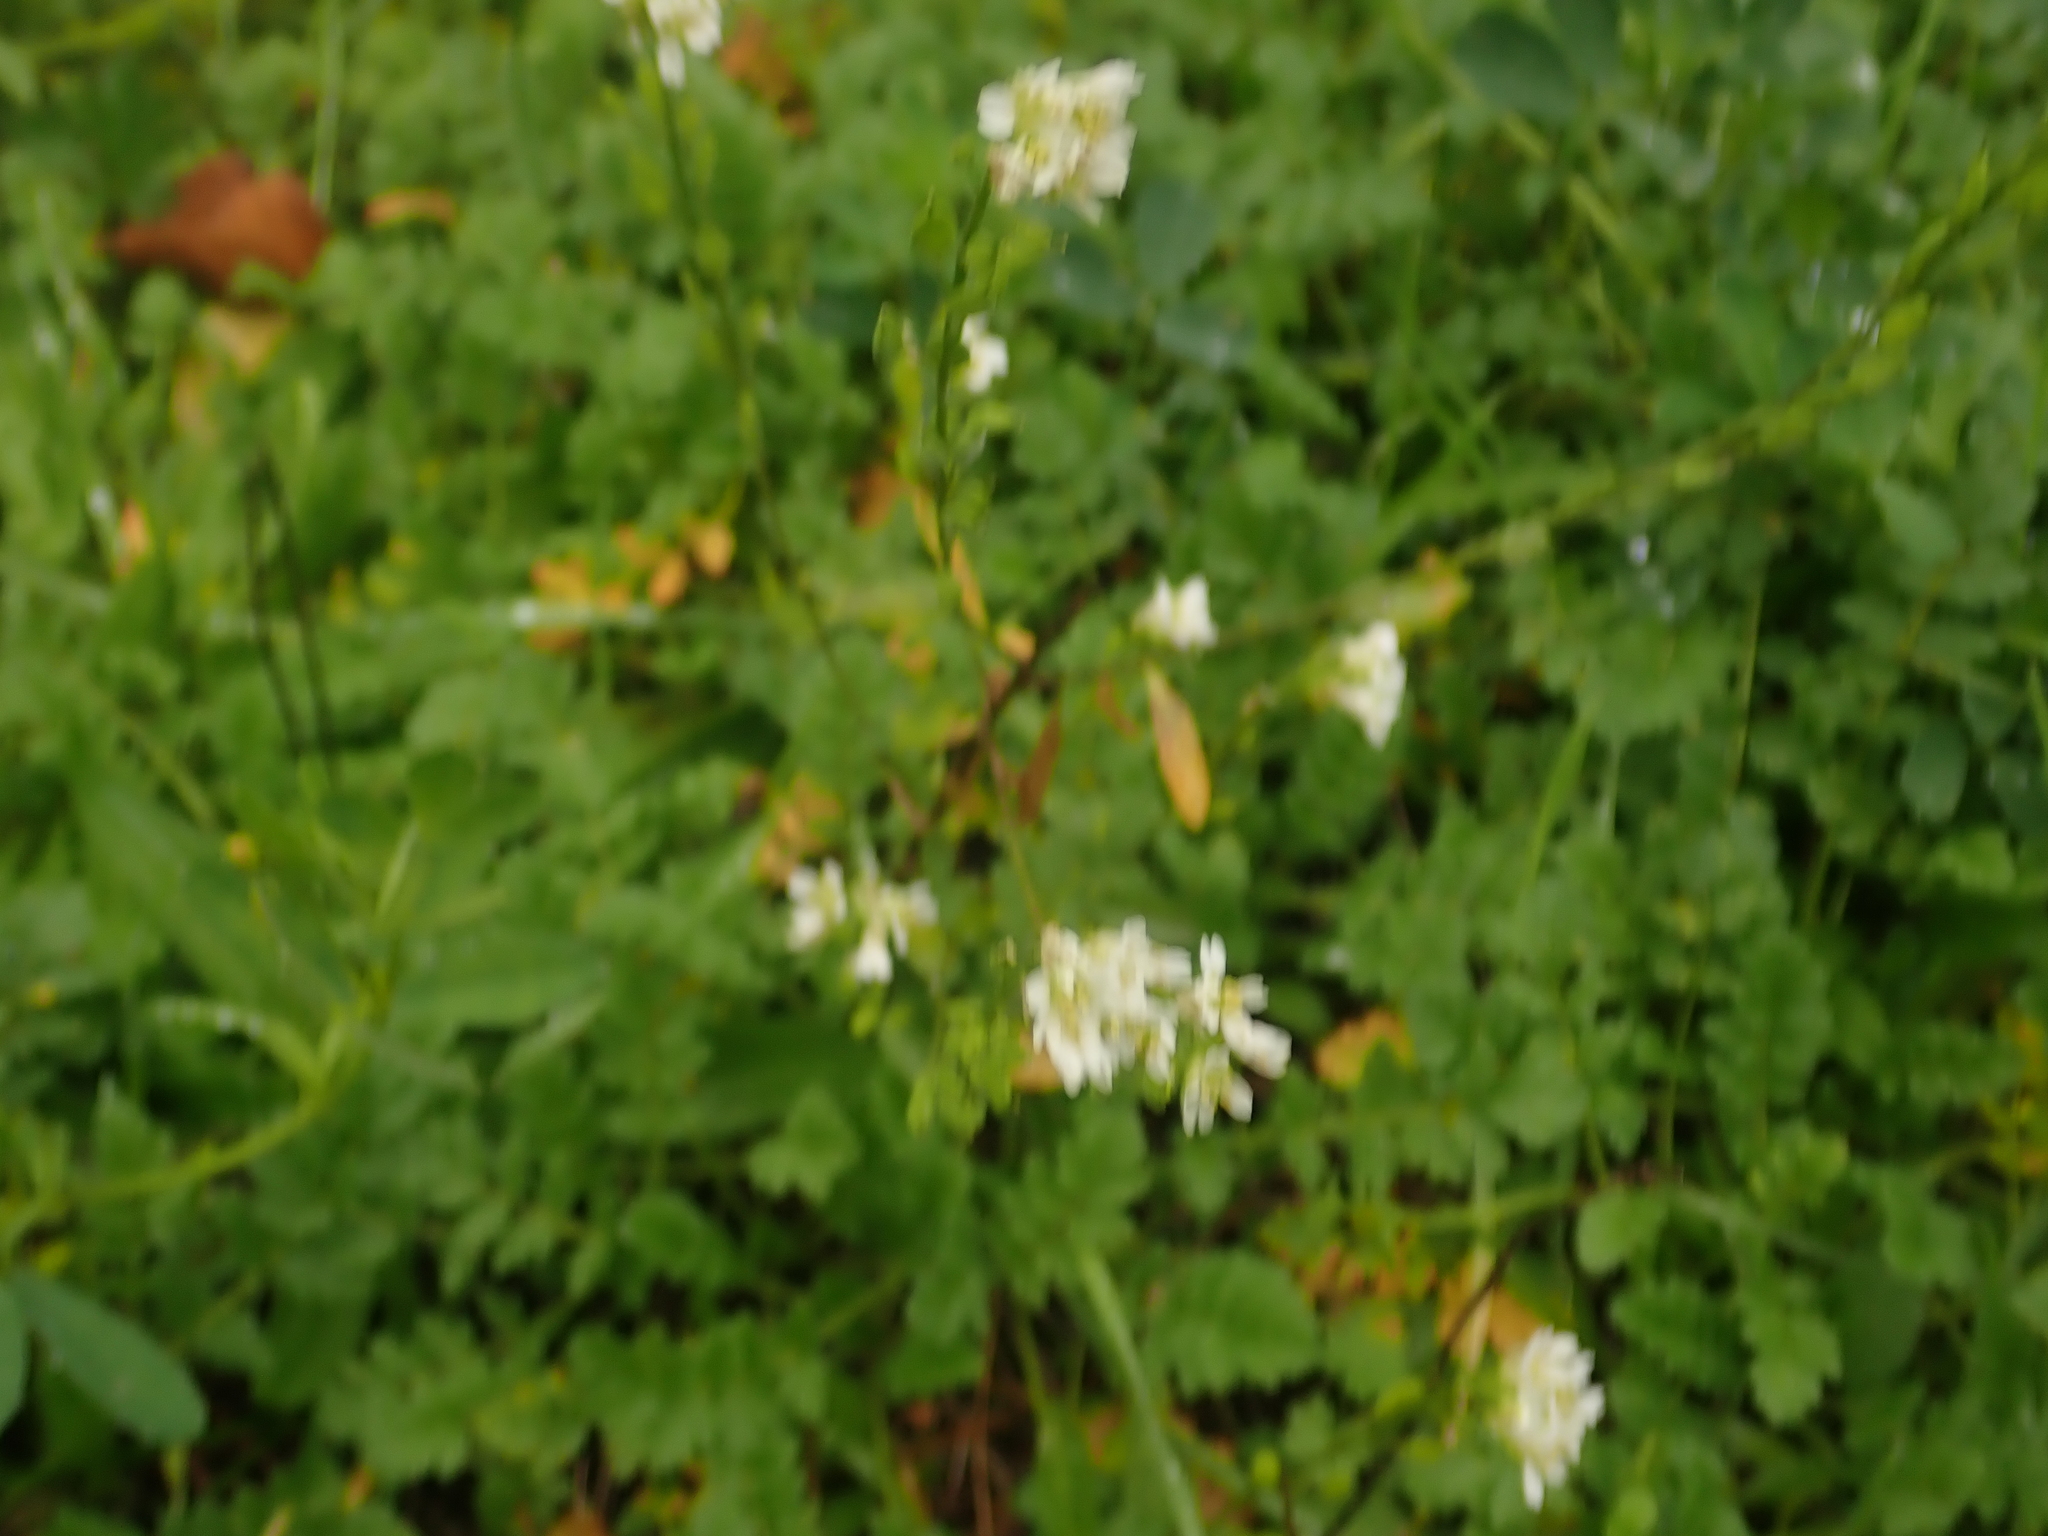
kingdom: Plantae
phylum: Tracheophyta
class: Magnoliopsida
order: Brassicales
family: Brassicaceae
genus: Berteroa
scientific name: Berteroa incana
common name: Hoary alison
